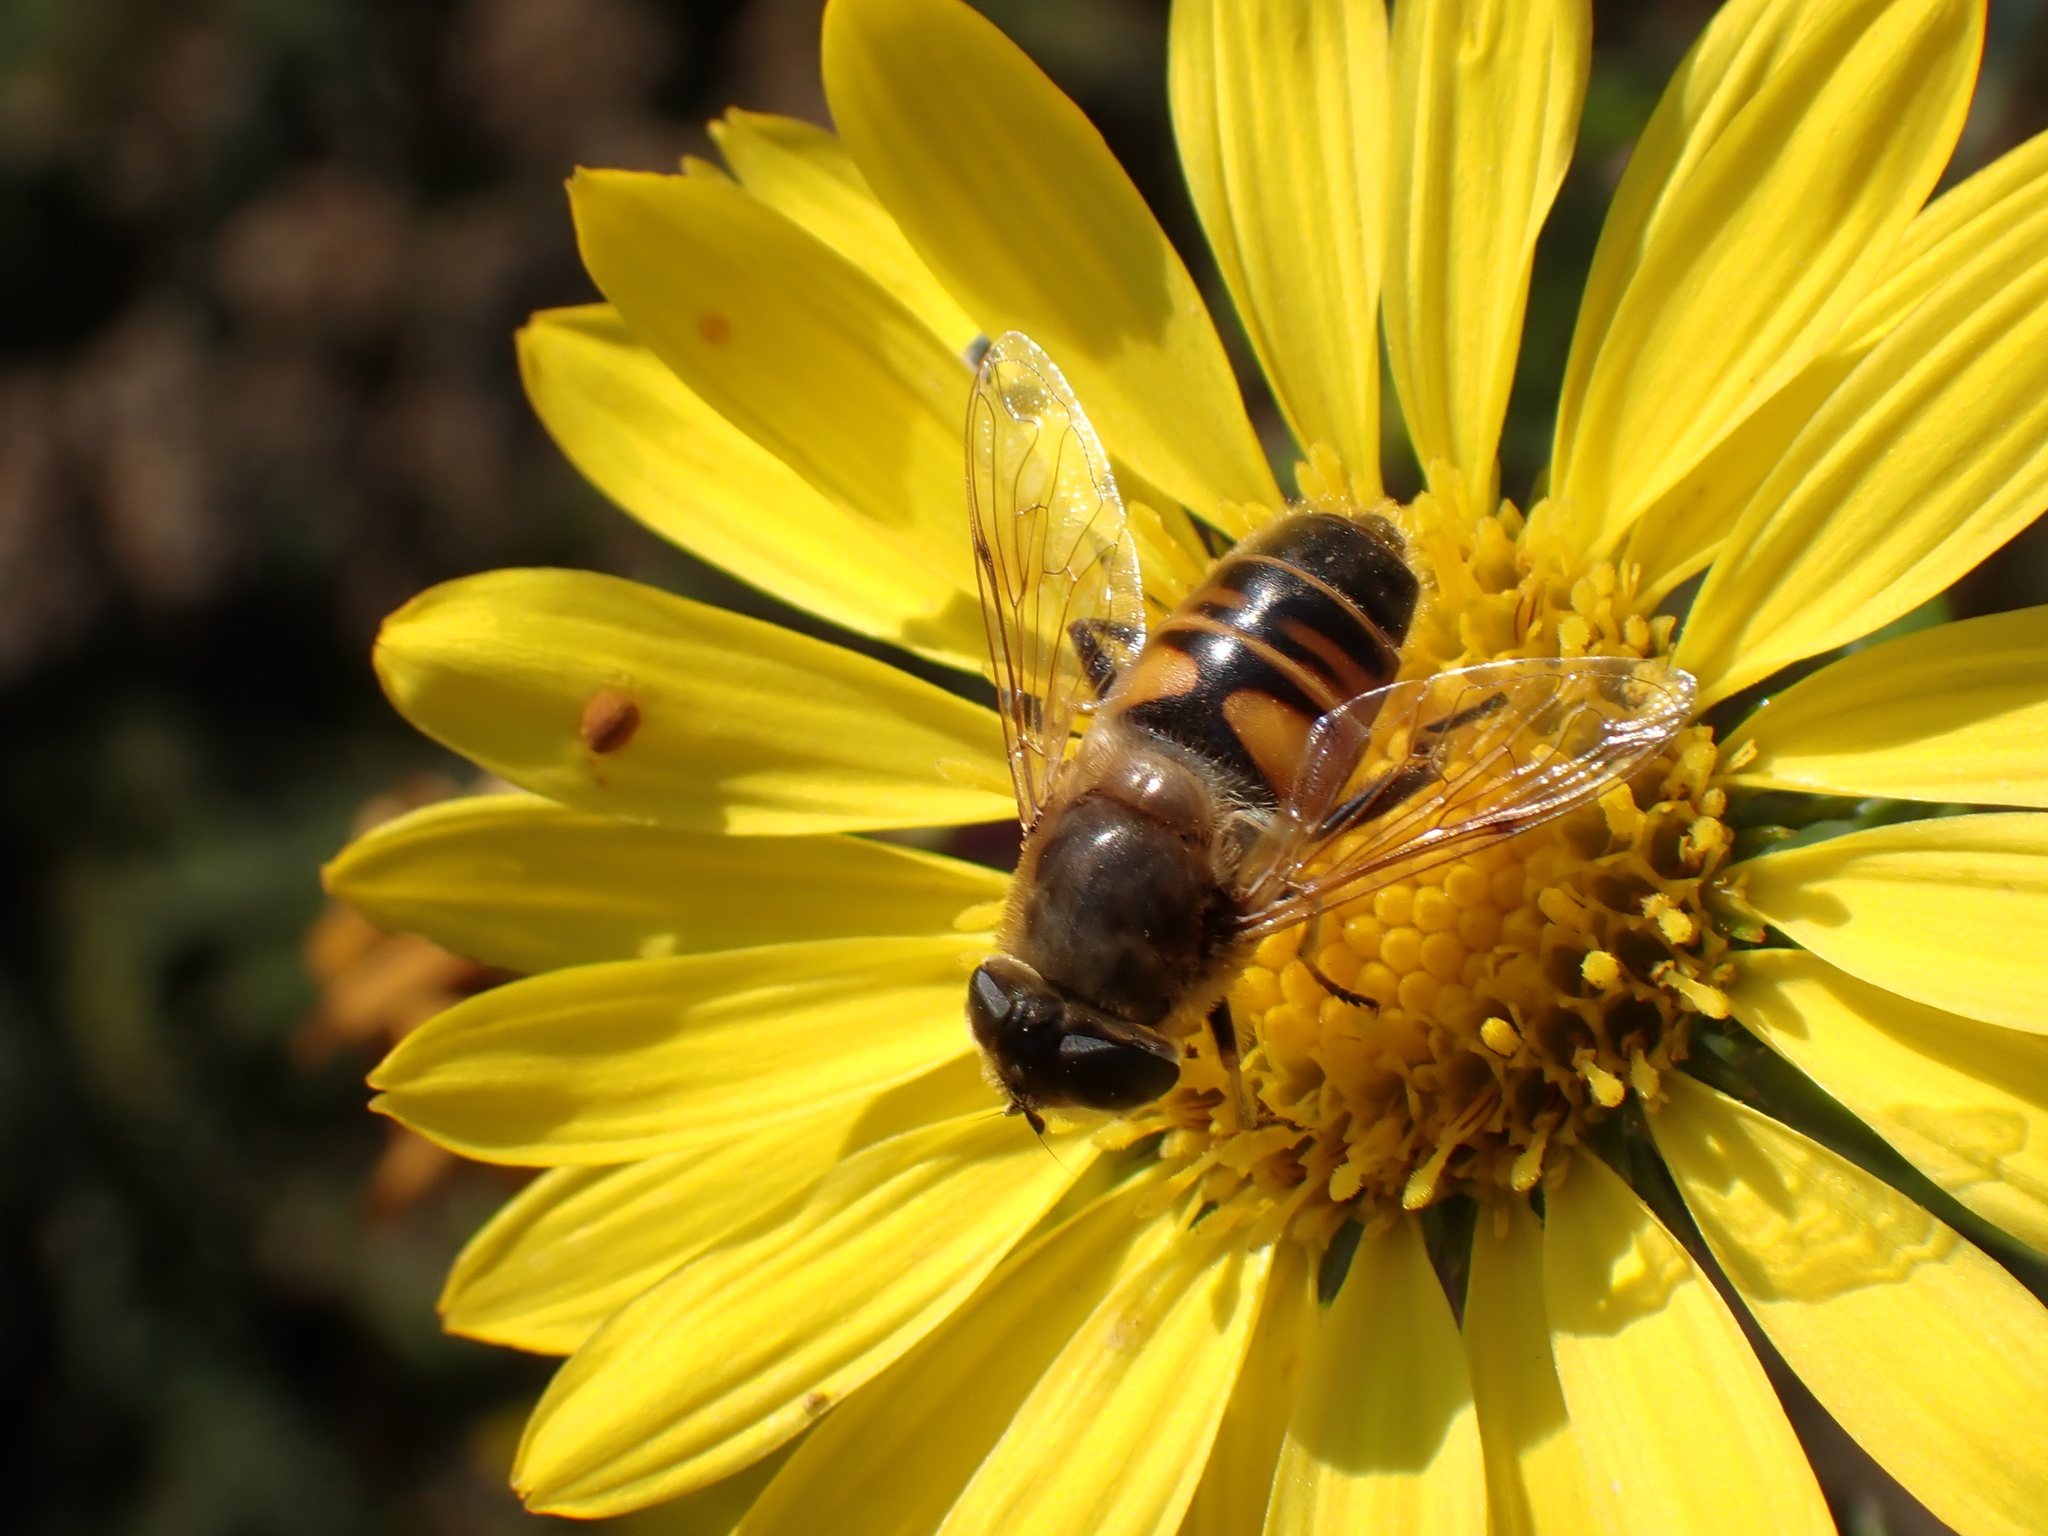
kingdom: Animalia
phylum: Arthropoda
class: Insecta
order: Diptera
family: Syrphidae
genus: Eristalis
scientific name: Eristalis tenax
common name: Drone fly
